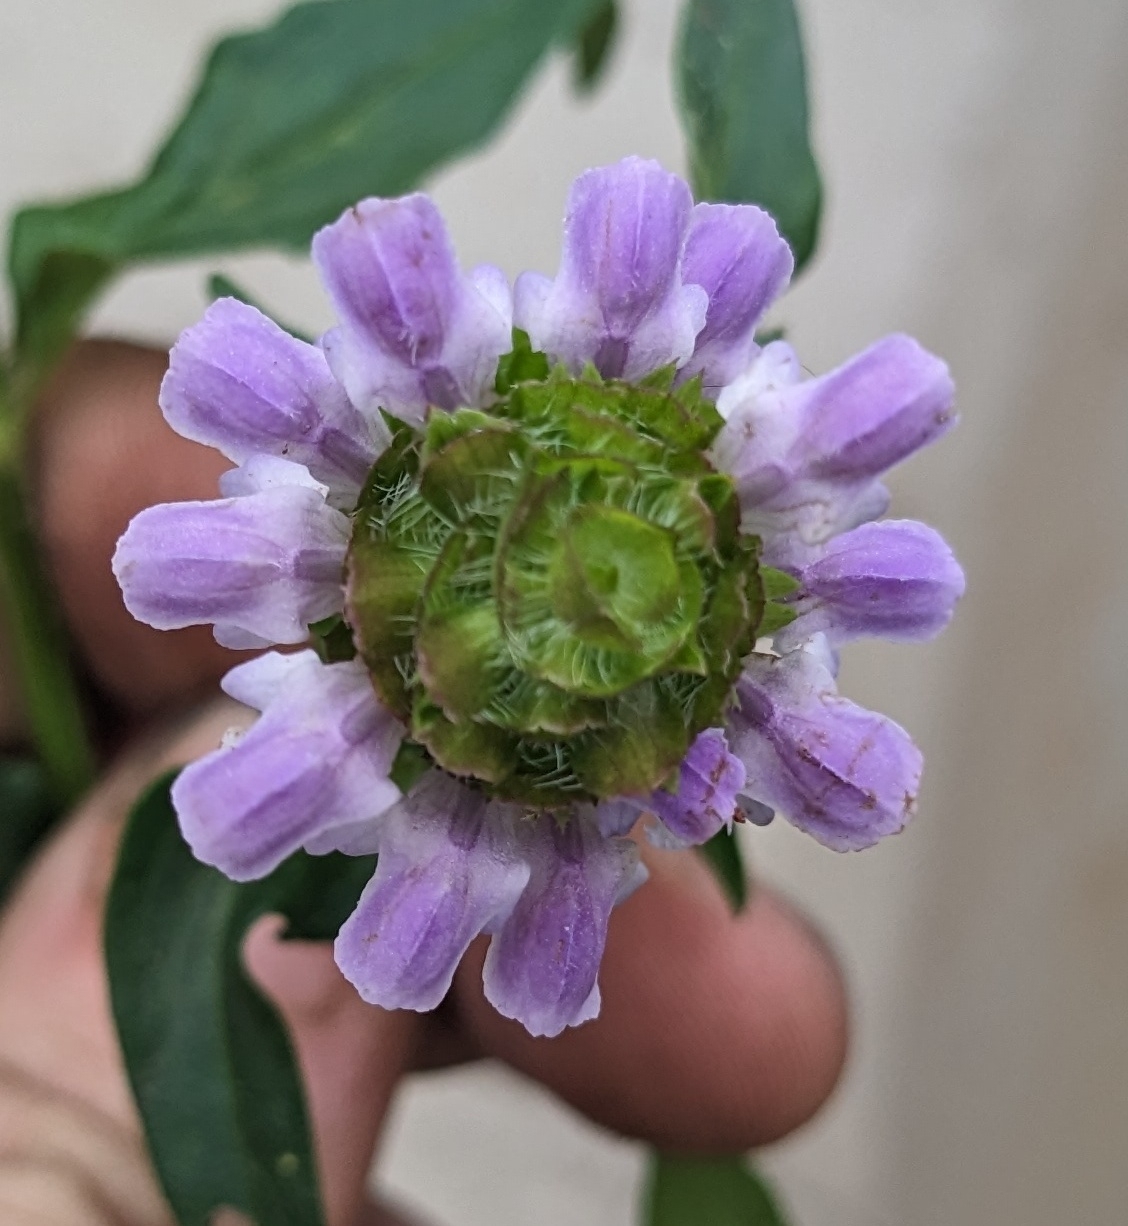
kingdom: Plantae
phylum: Tracheophyta
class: Magnoliopsida
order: Lamiales
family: Lamiaceae
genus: Prunella
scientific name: Prunella vulgaris
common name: Heal-all
